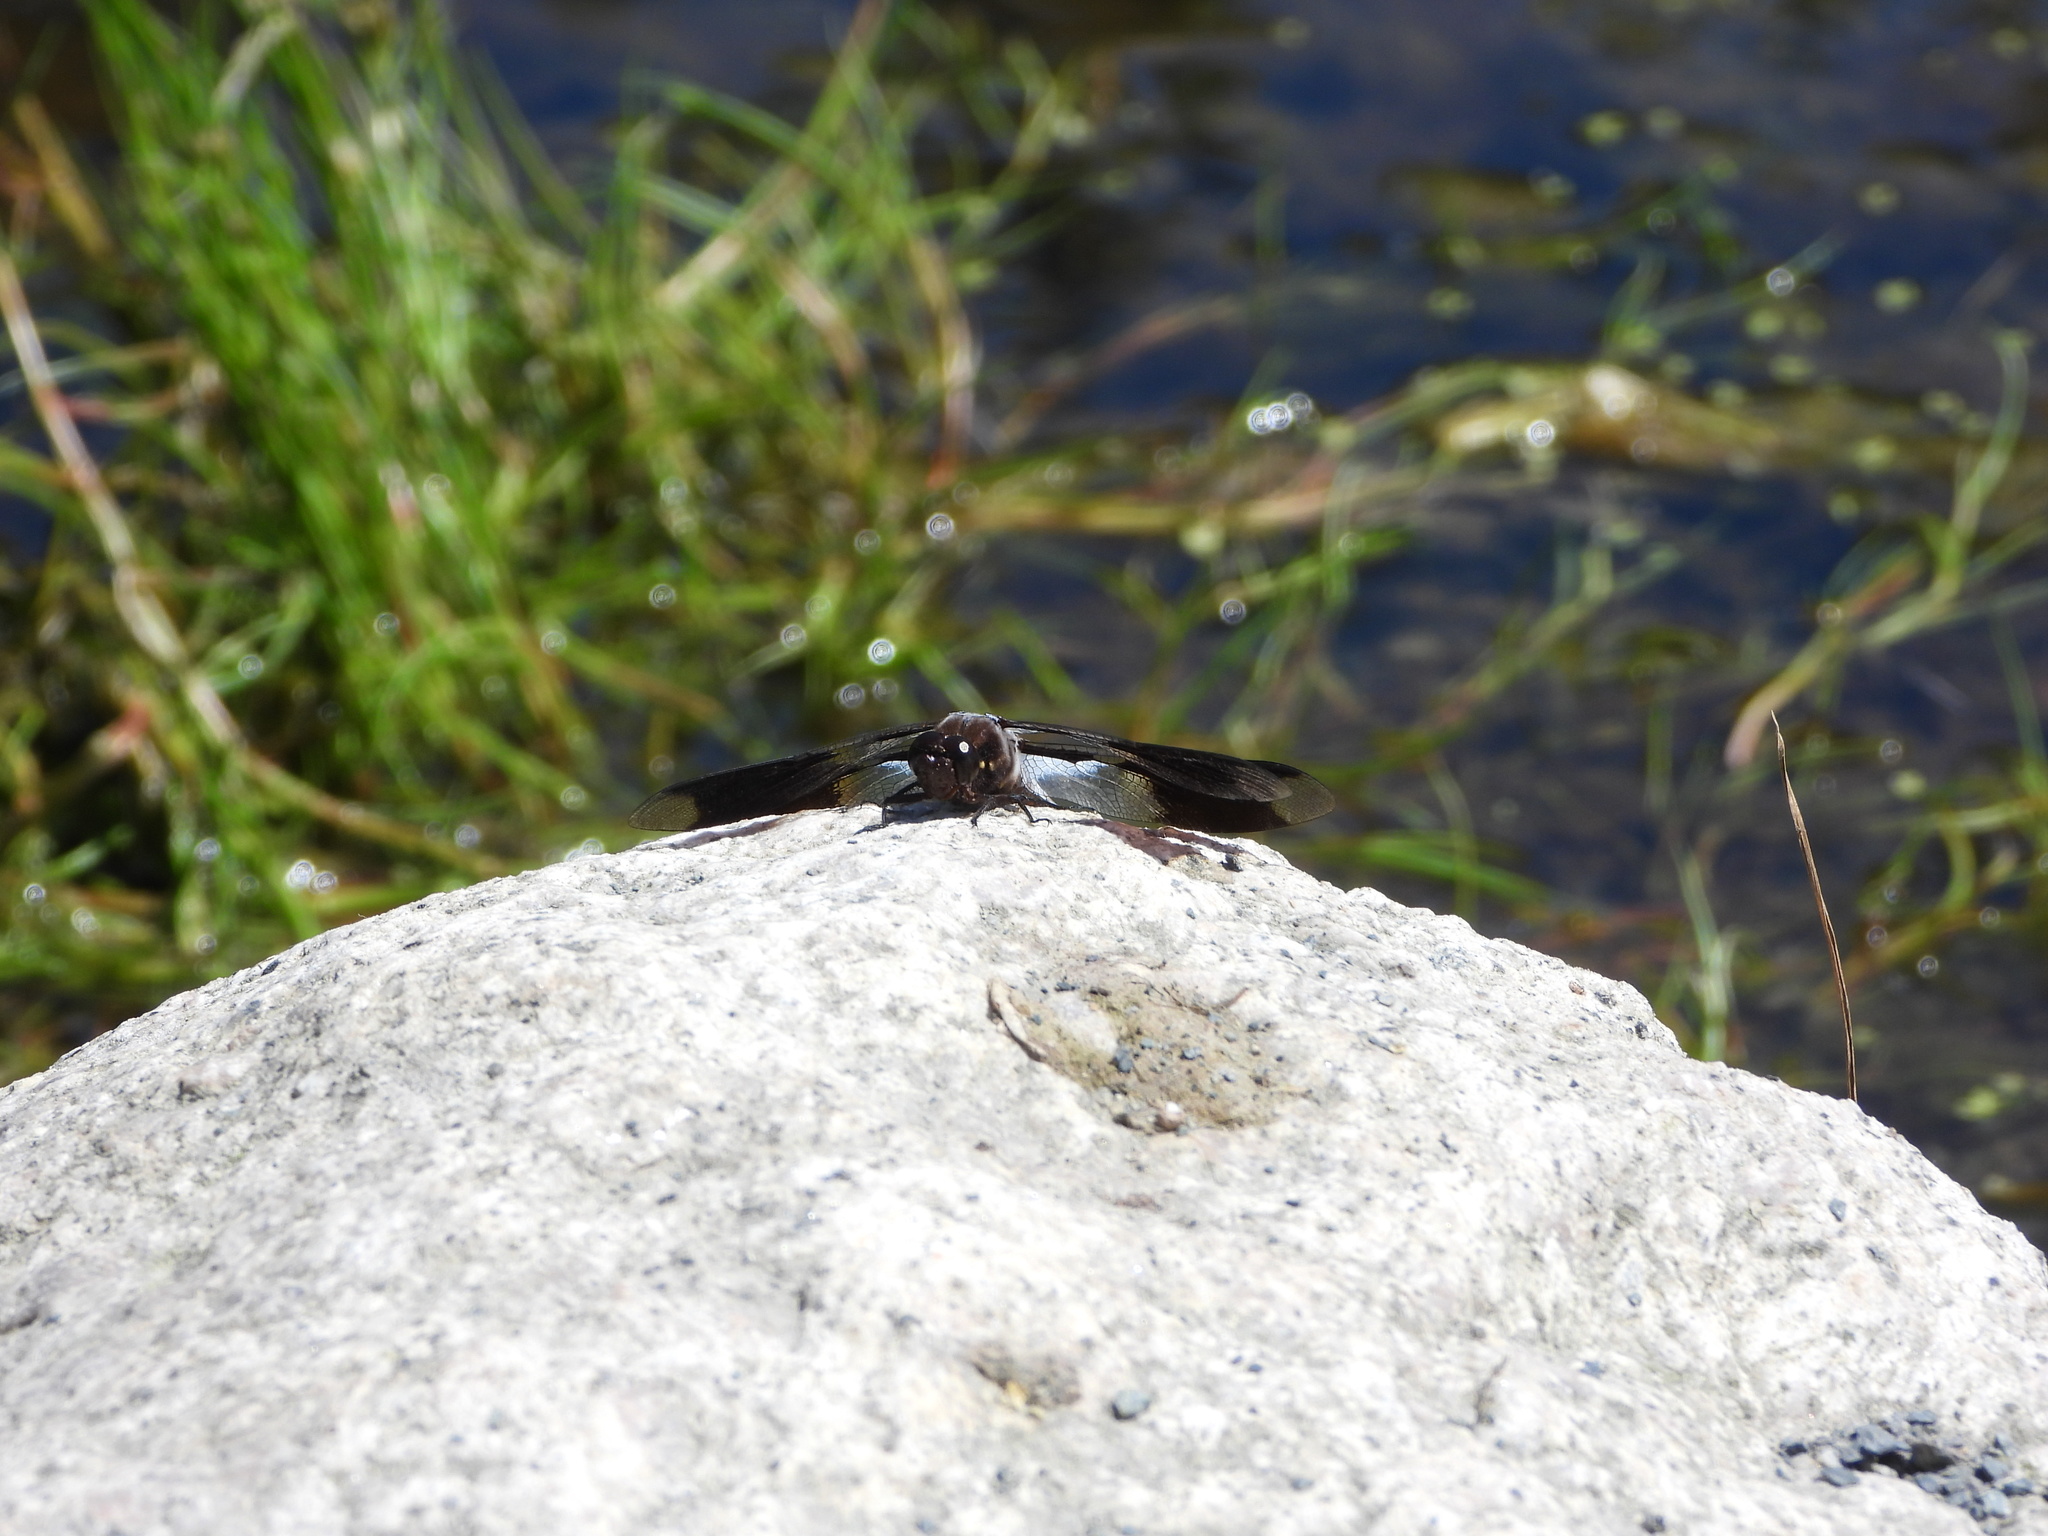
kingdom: Animalia
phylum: Arthropoda
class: Insecta
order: Odonata
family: Libellulidae
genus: Plathemis
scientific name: Plathemis lydia
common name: Common whitetail
